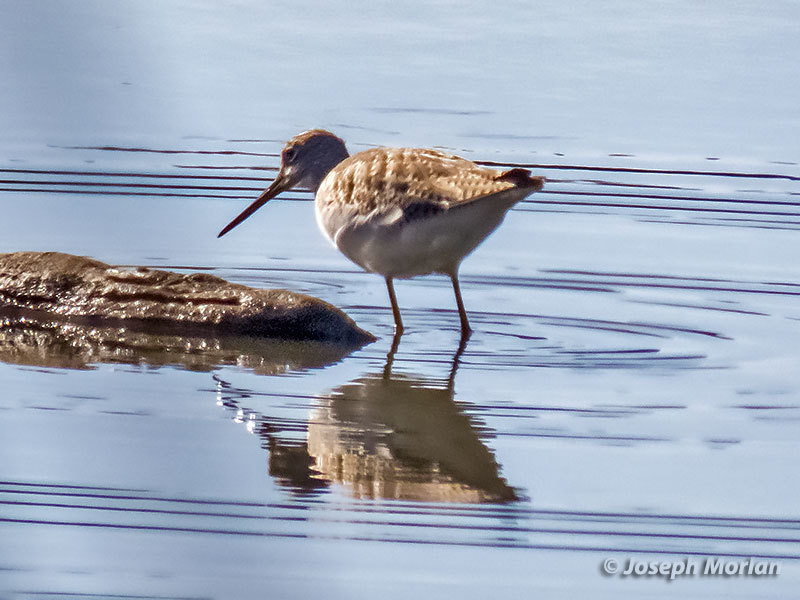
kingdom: Animalia
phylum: Chordata
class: Aves
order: Charadriiformes
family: Scolopacidae
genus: Tringa
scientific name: Tringa melanoleuca
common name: Greater yellowlegs
